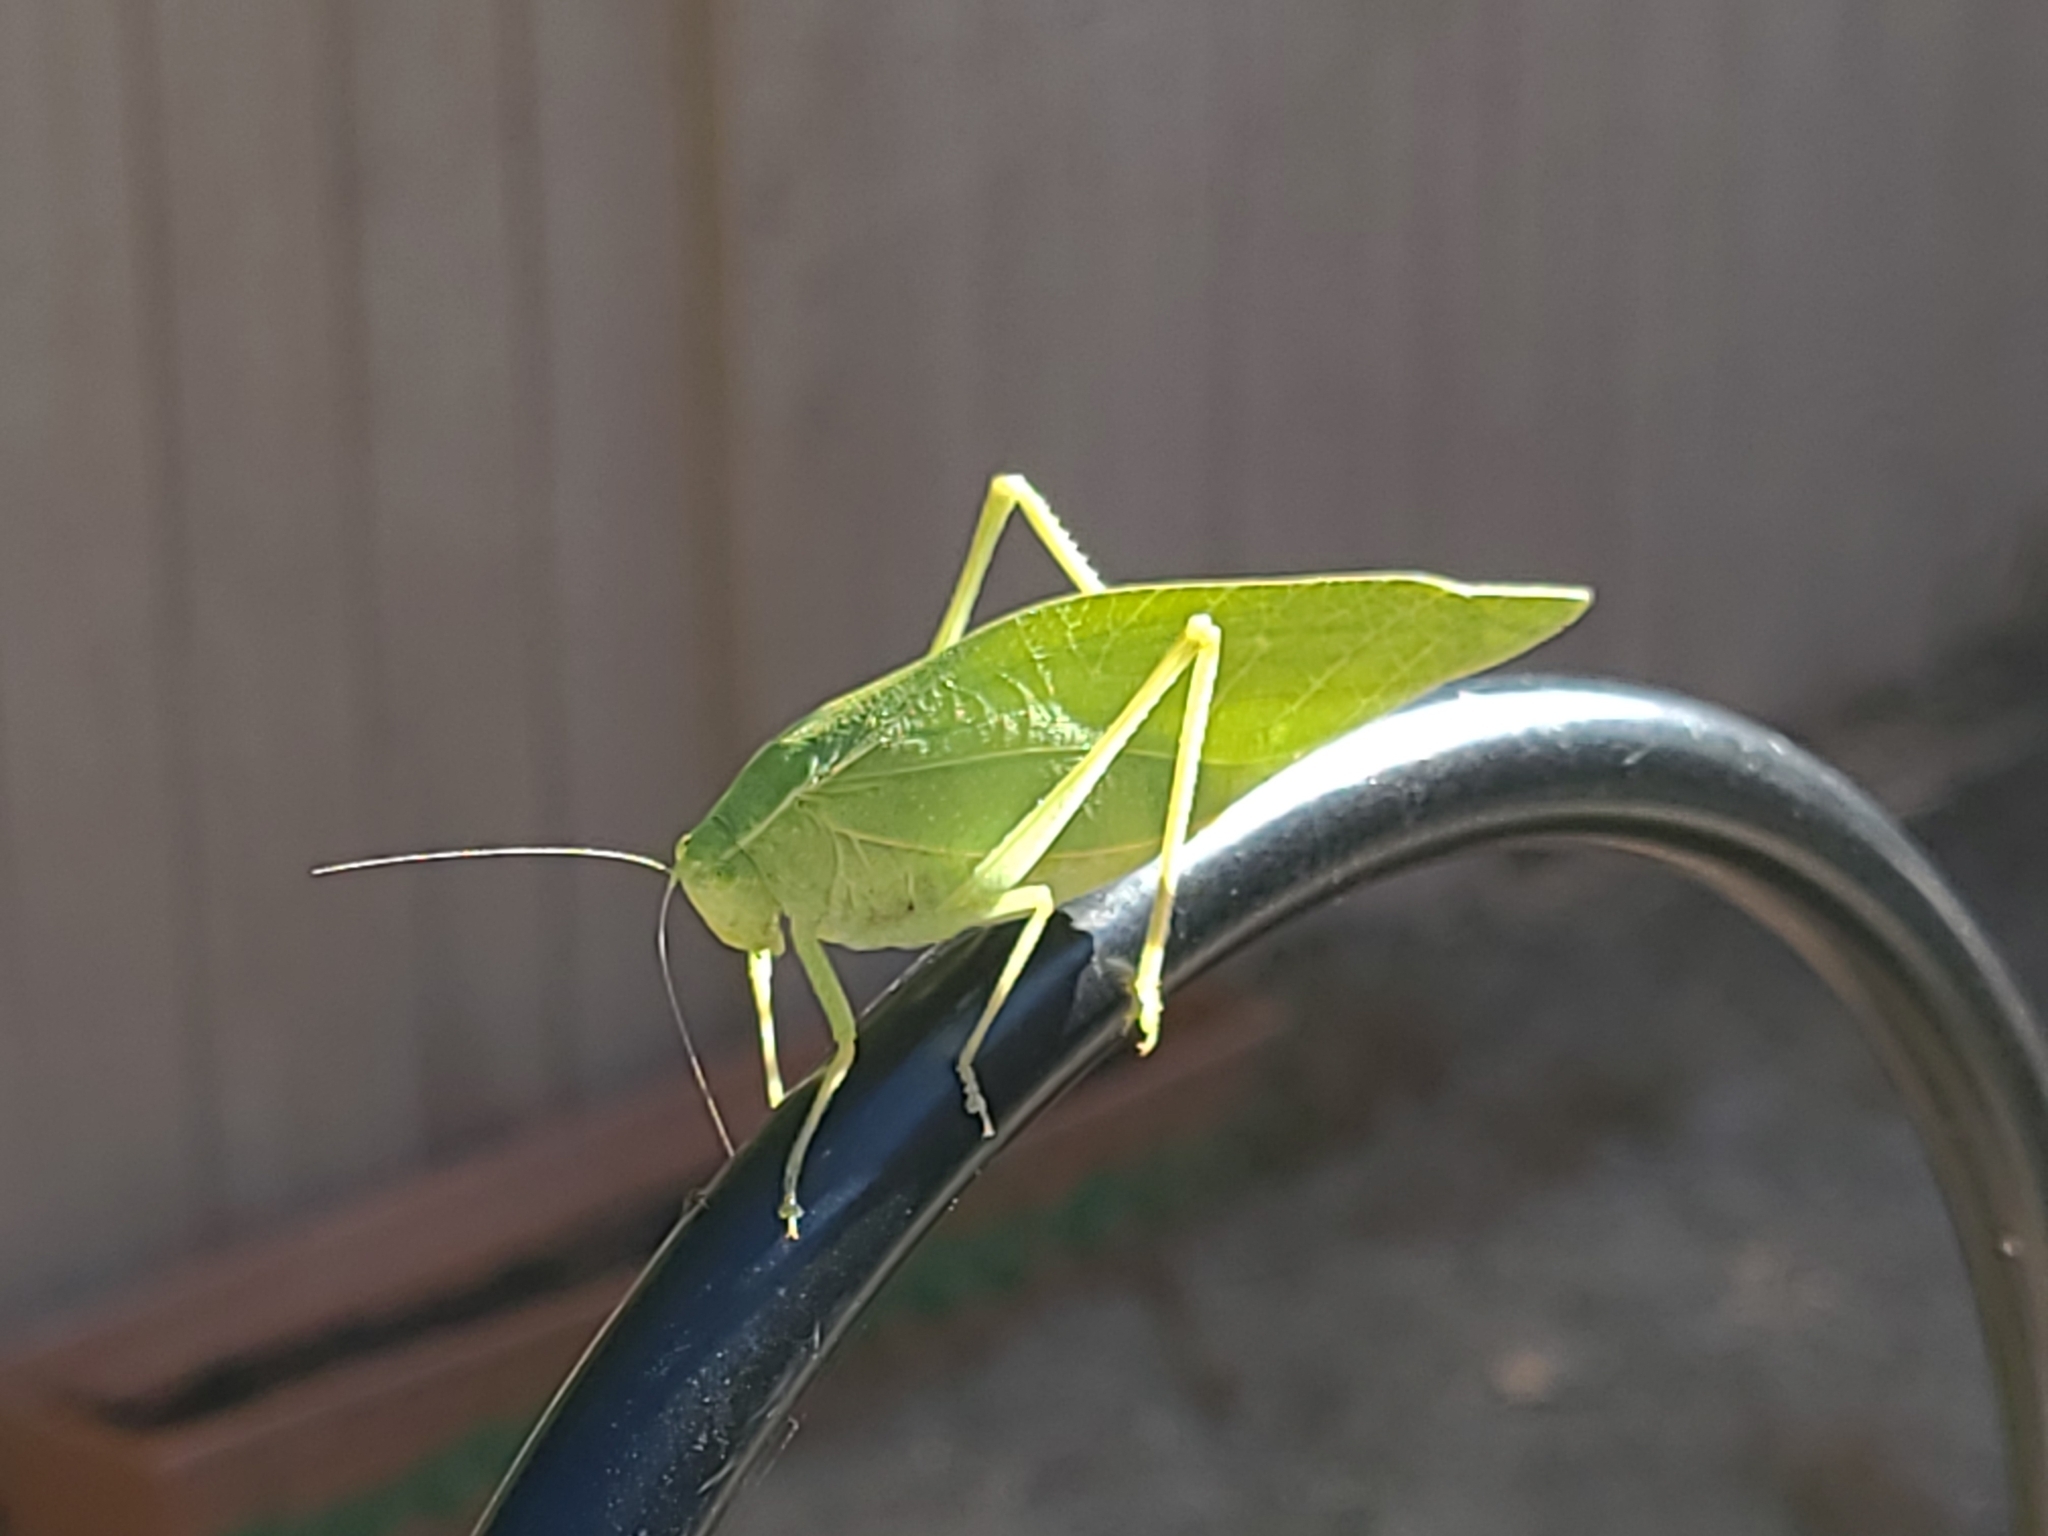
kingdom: Animalia
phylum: Arthropoda
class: Insecta
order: Orthoptera
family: Tettigoniidae
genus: Microcentrum
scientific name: Microcentrum
